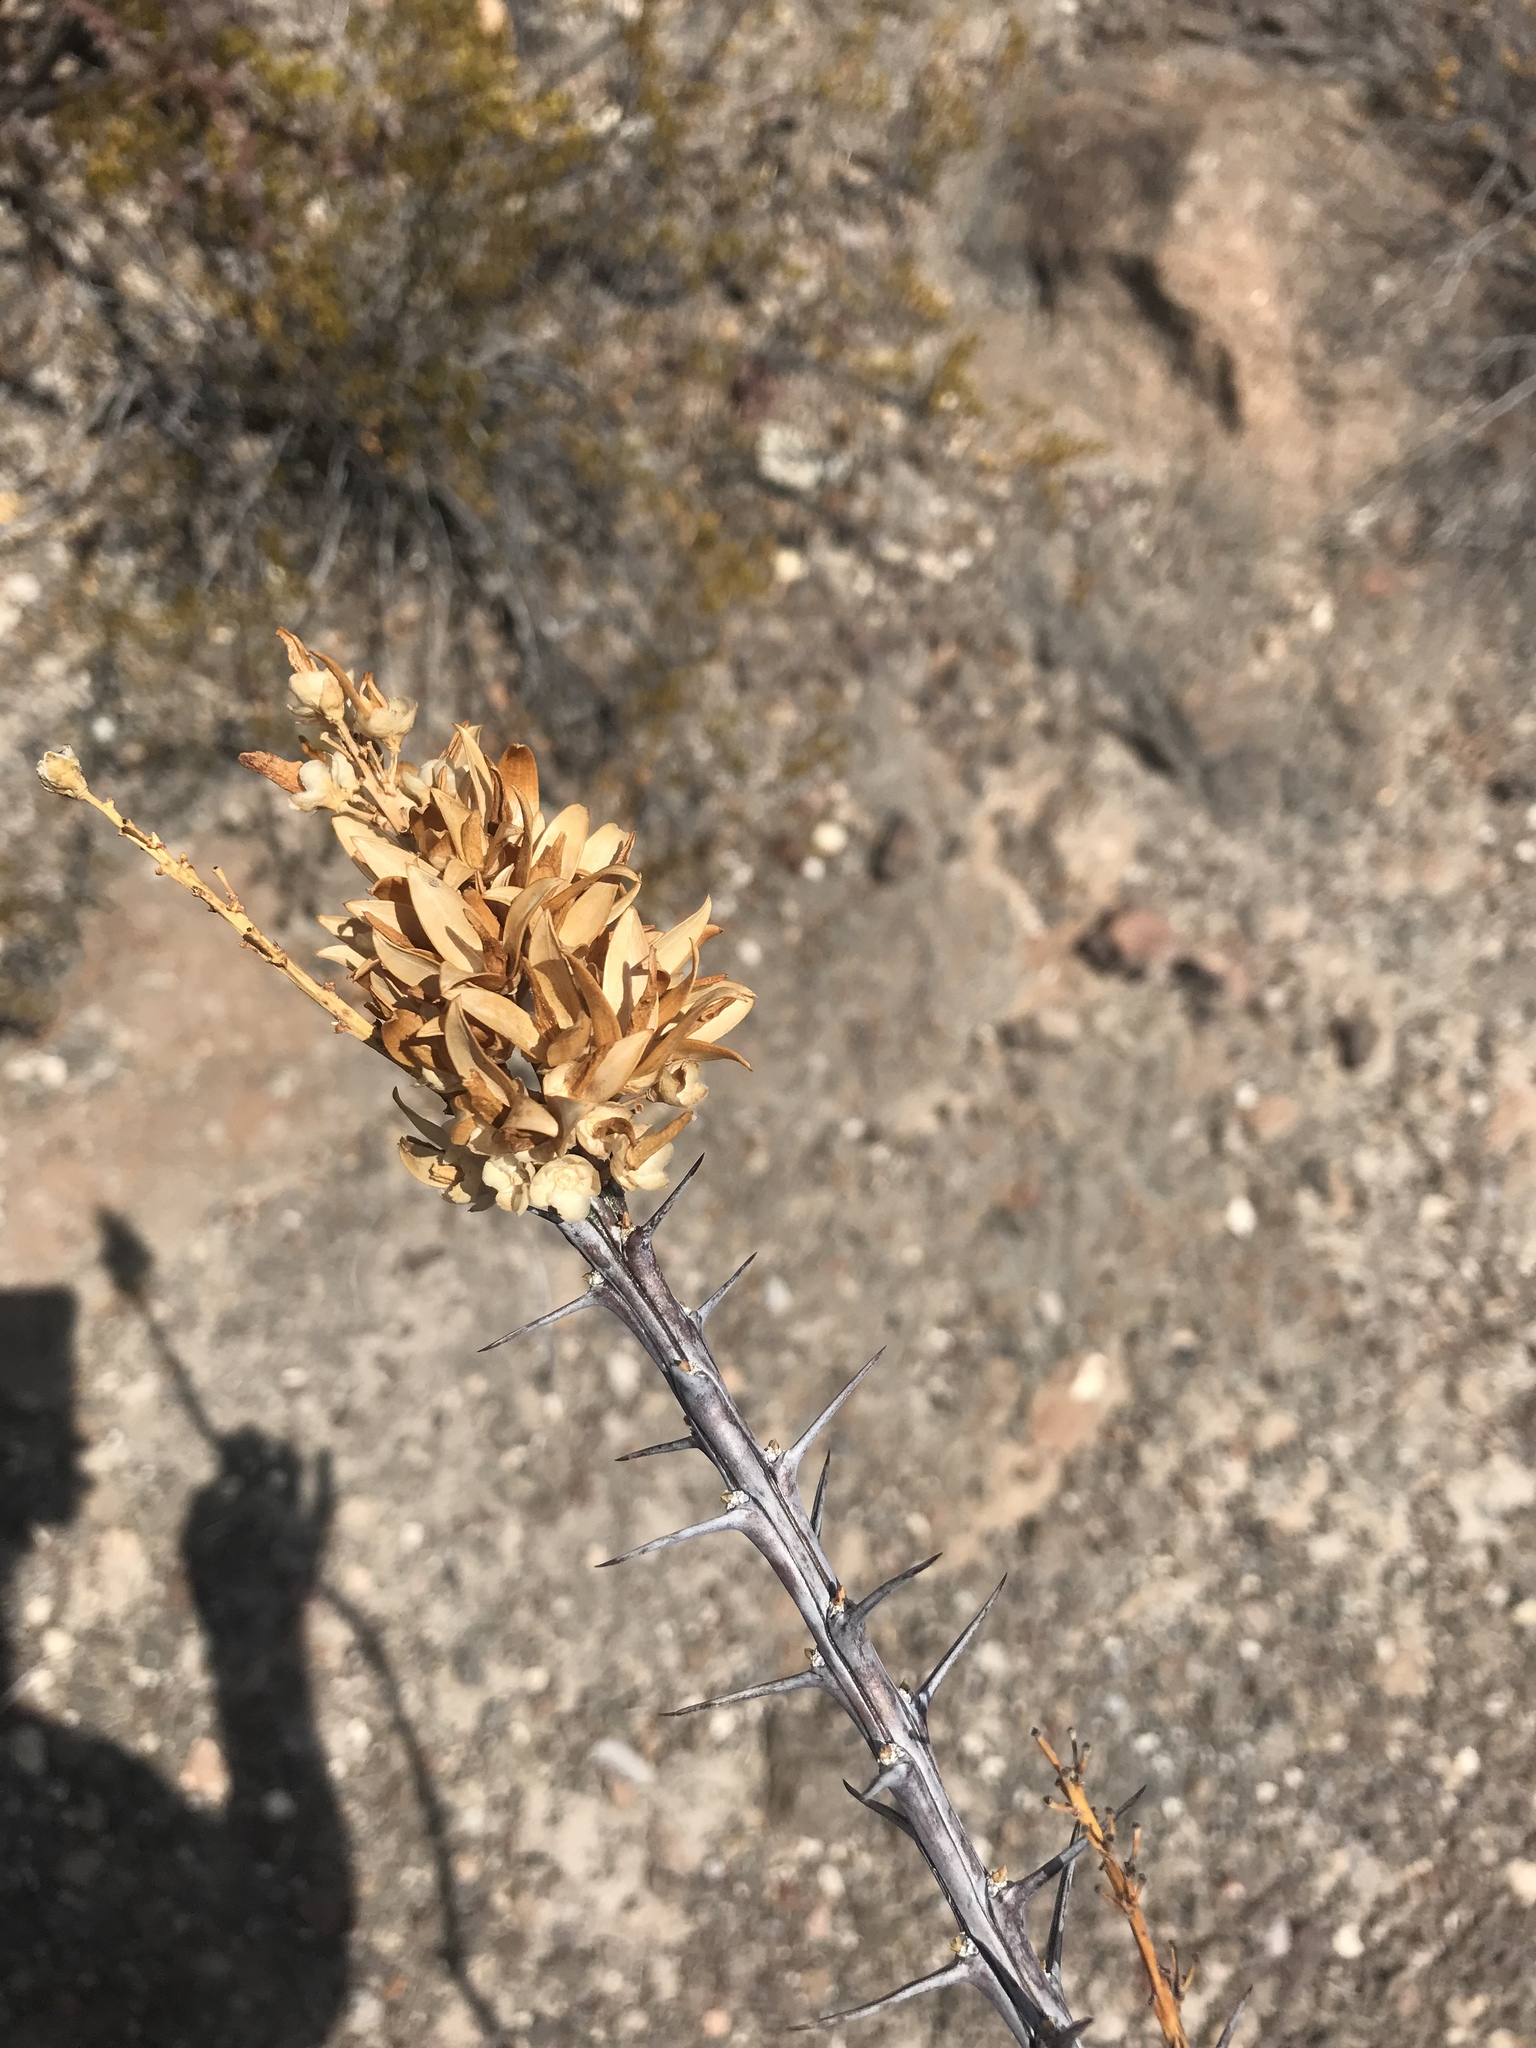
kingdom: Plantae
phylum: Tracheophyta
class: Magnoliopsida
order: Ericales
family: Fouquieriaceae
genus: Fouquieria
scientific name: Fouquieria splendens
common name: Vine-cactus
